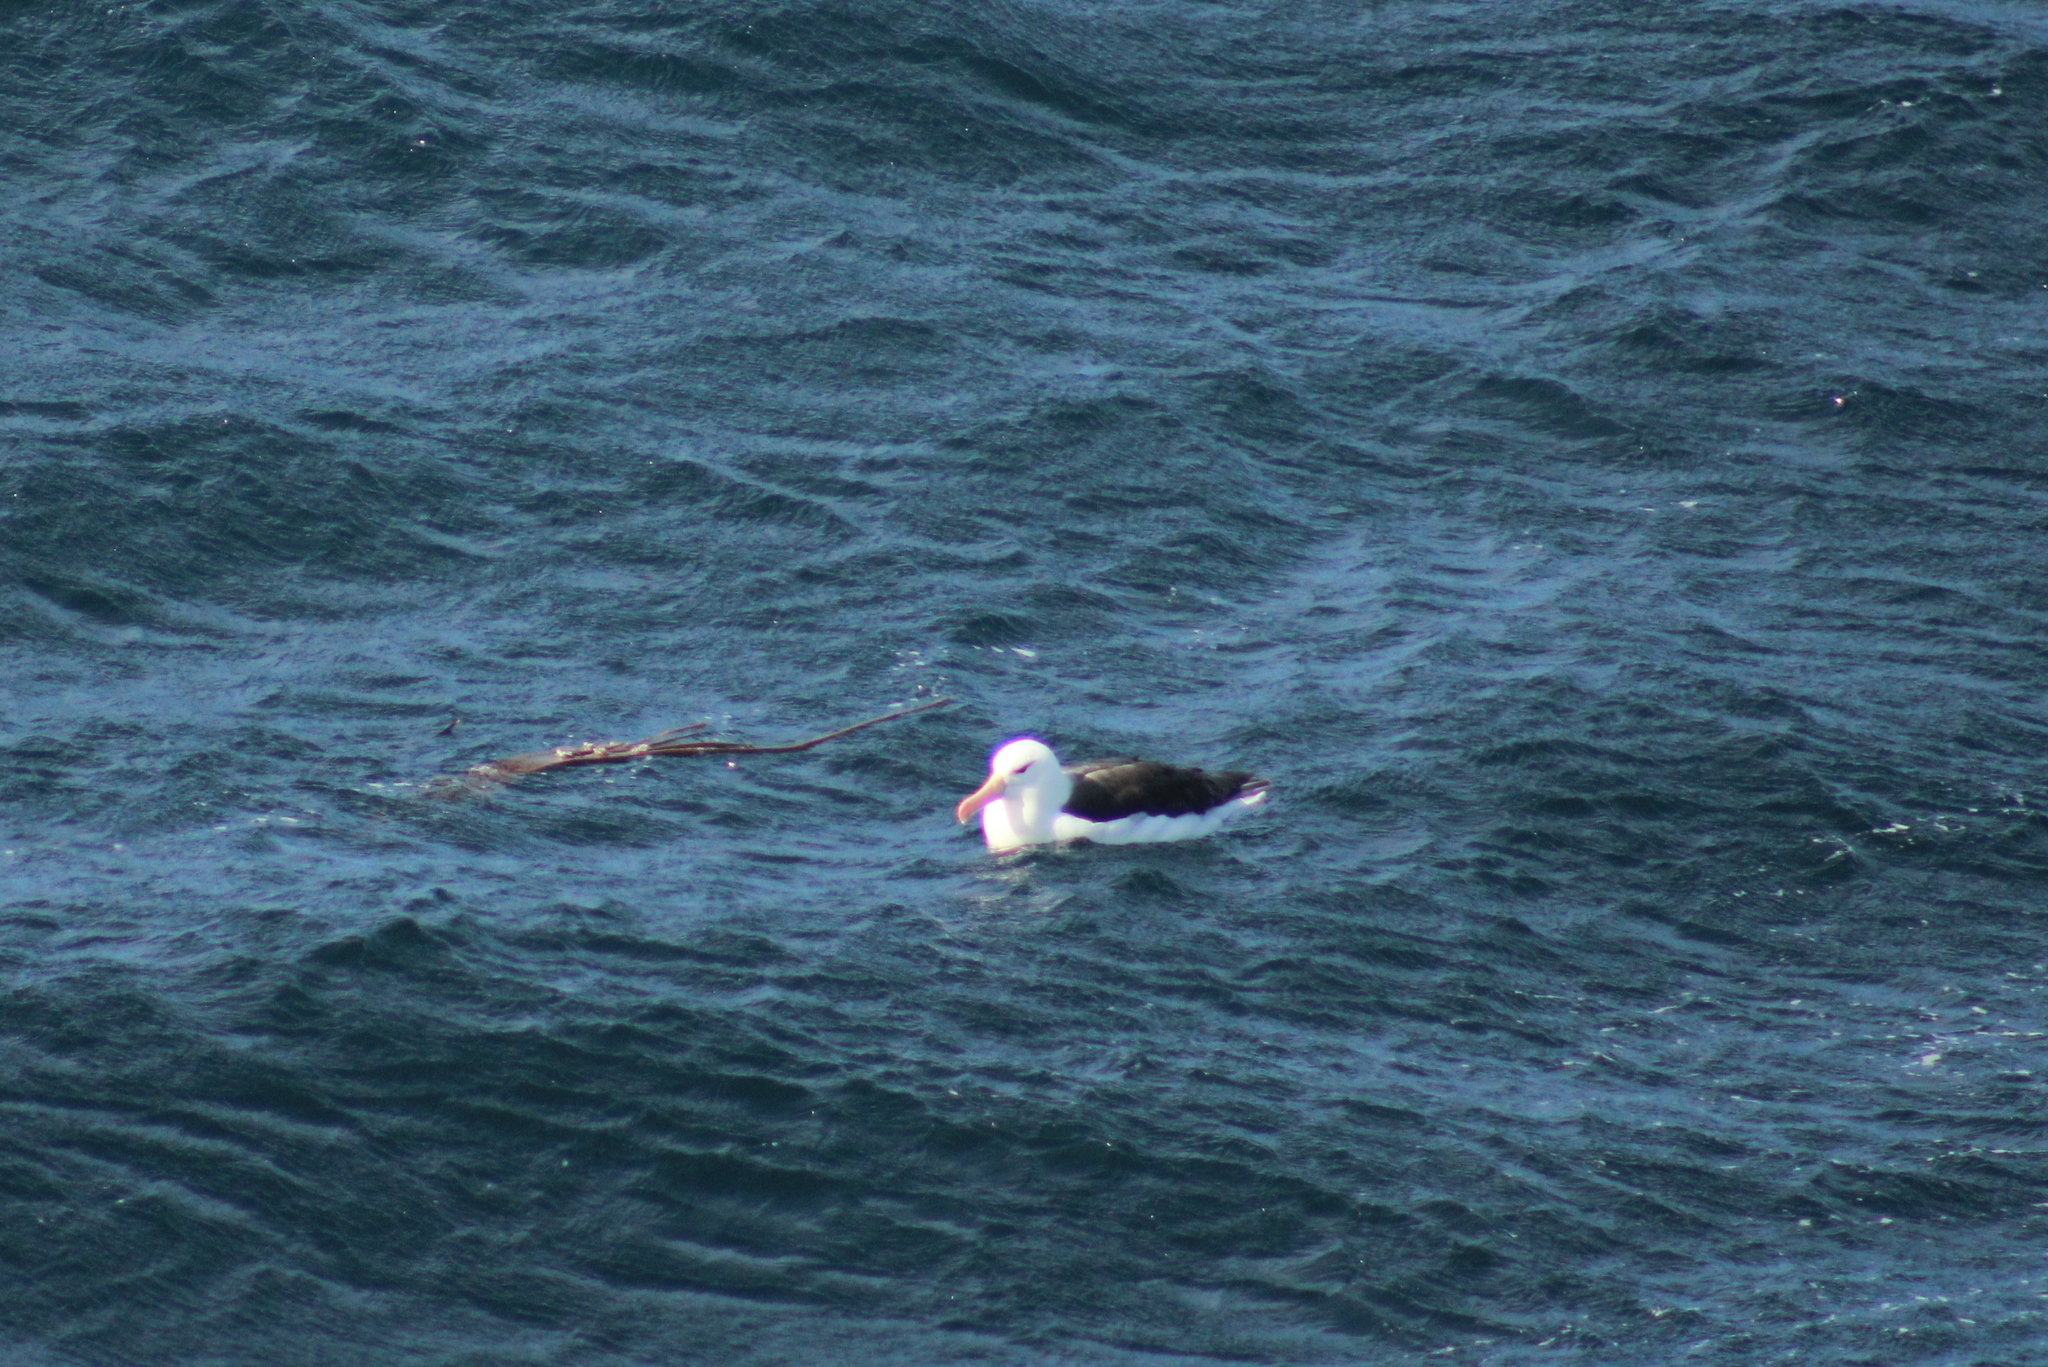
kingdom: Animalia
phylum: Chordata
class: Aves
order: Procellariiformes
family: Diomedeidae
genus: Thalassarche
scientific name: Thalassarche melanophris
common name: Black-browed albatross
